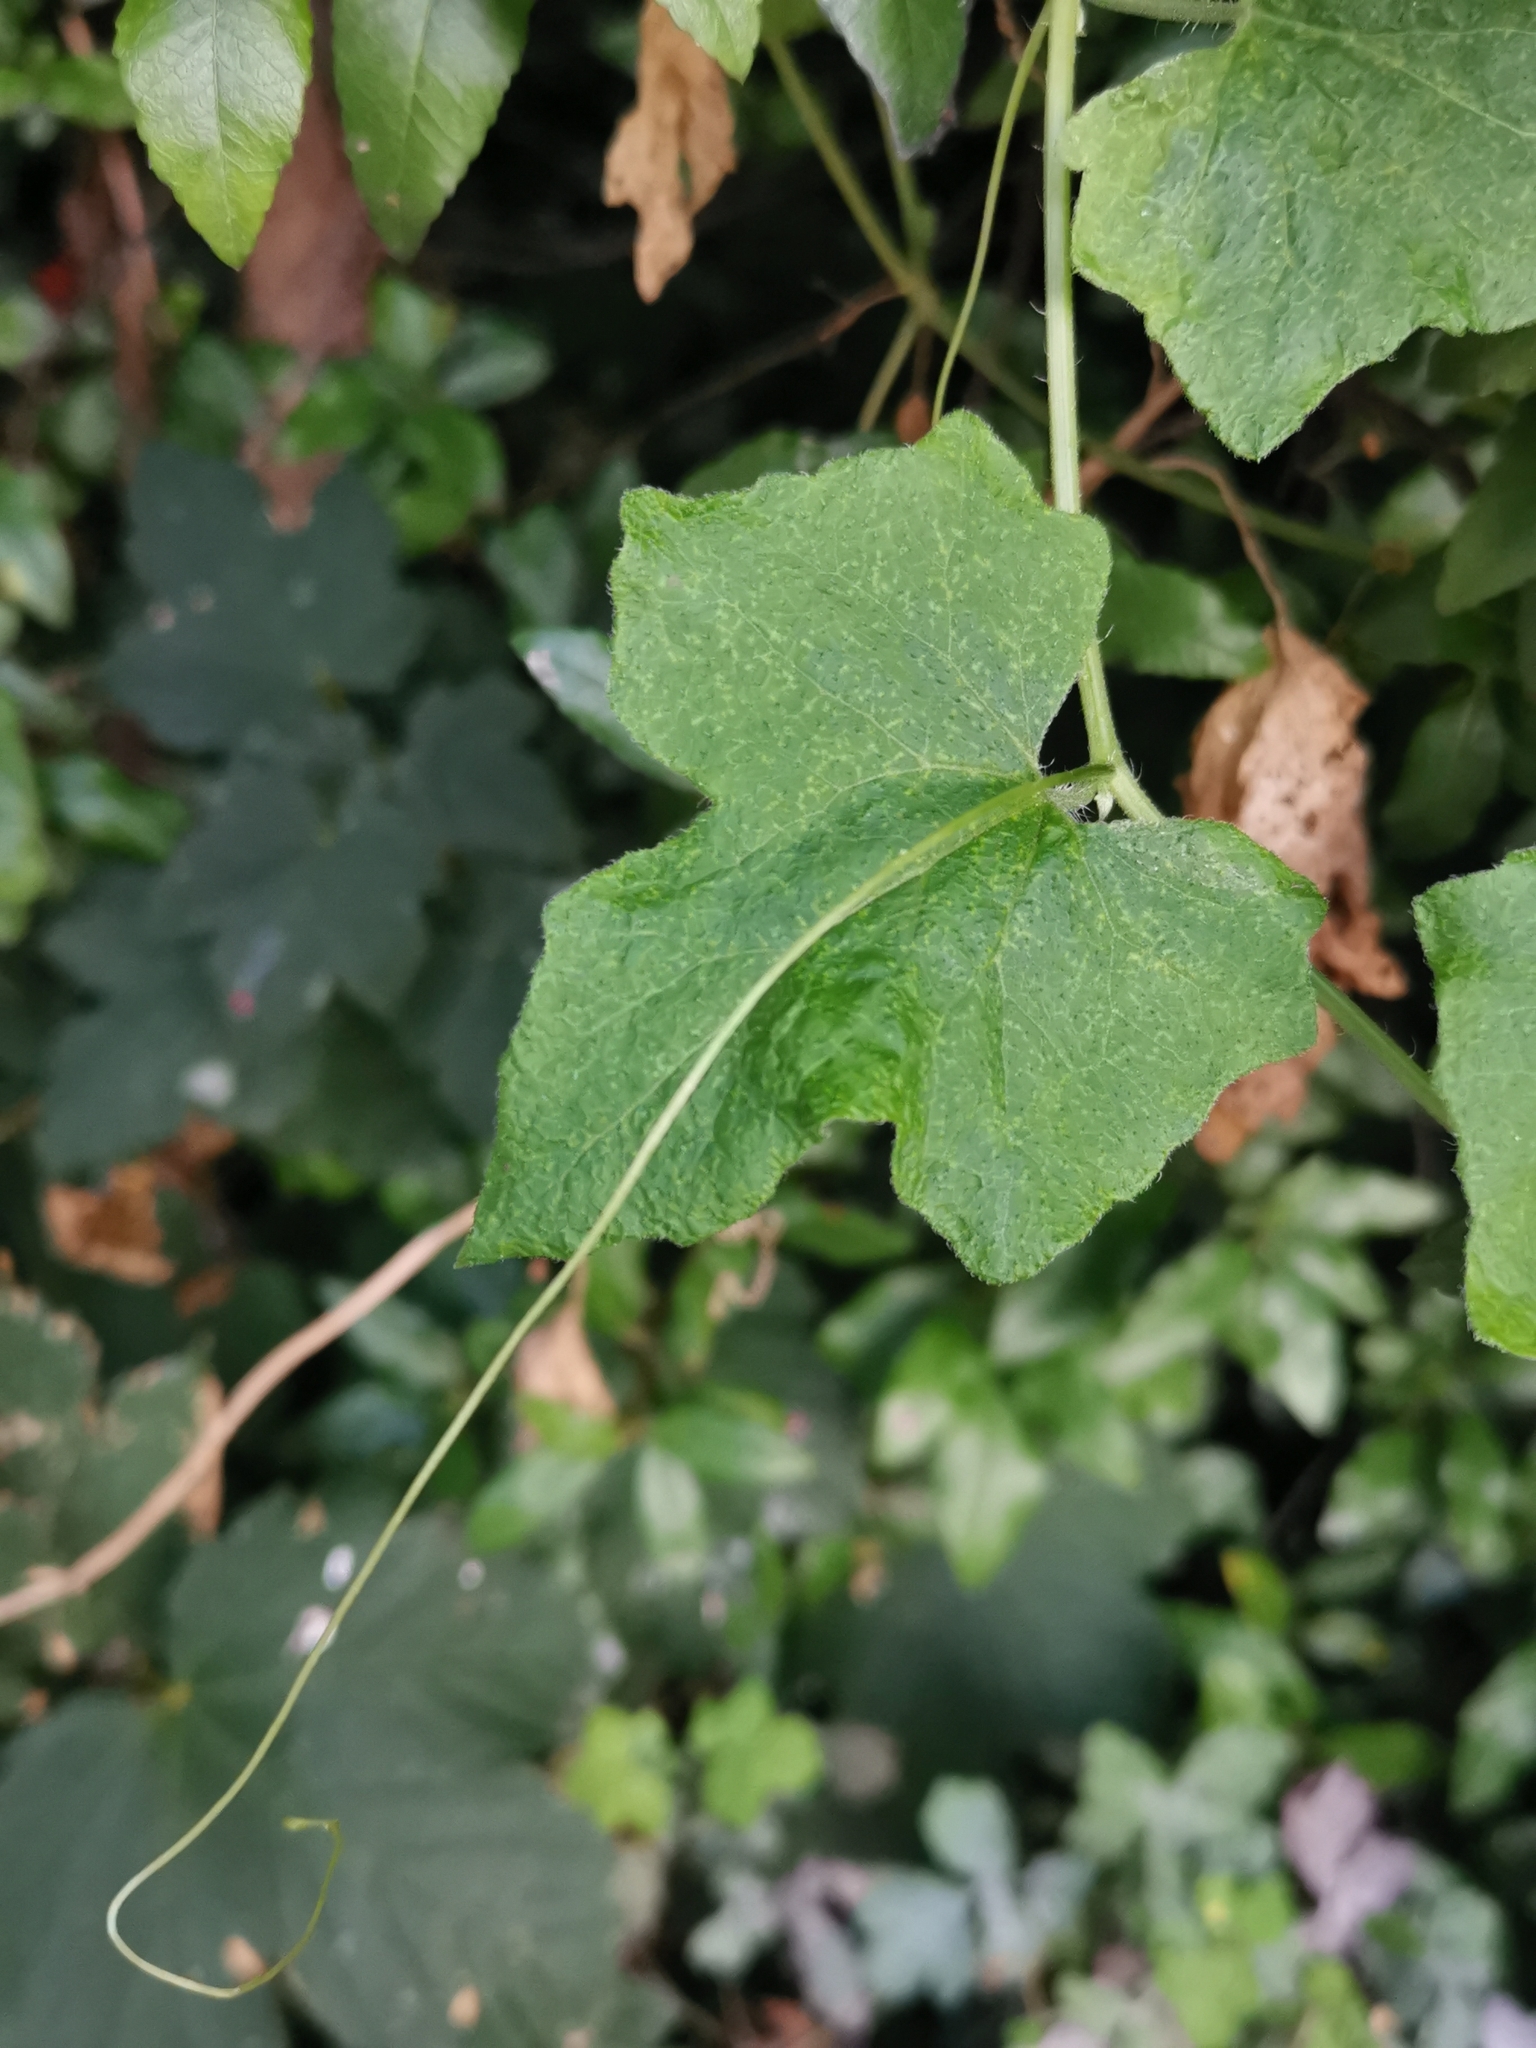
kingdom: Plantae
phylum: Tracheophyta
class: Magnoliopsida
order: Cucurbitales
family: Cucurbitaceae
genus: Bryonia
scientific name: Bryonia cretica
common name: Cretan bryony
